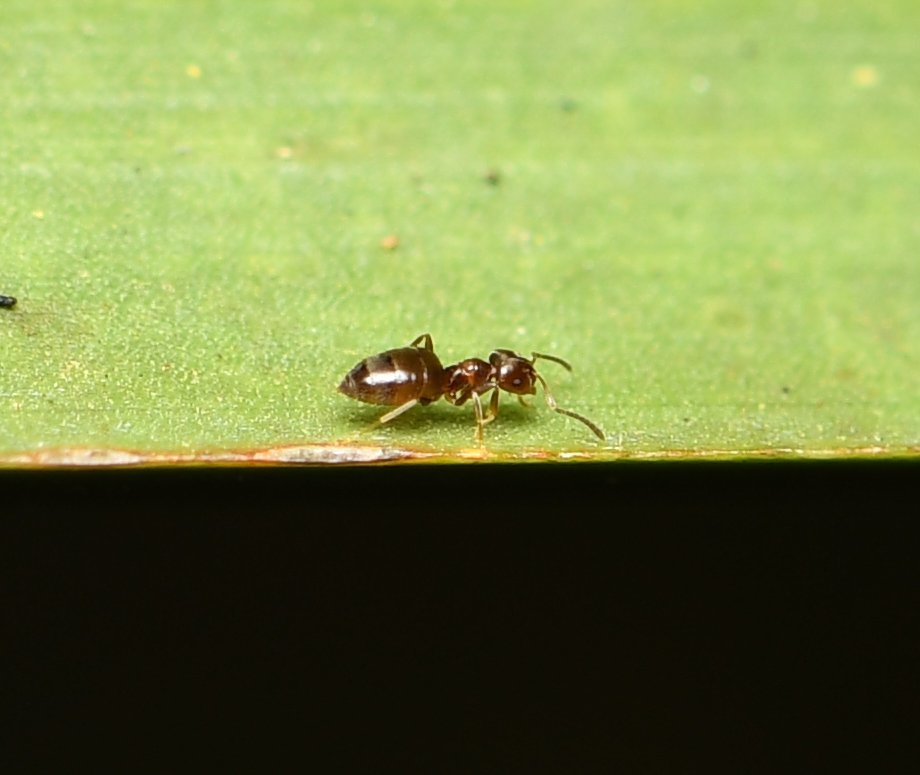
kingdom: Animalia
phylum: Arthropoda
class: Insecta
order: Hymenoptera
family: Formicidae
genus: Brachymyrmex
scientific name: Brachymyrmex obscurior
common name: Obscure rover ant
